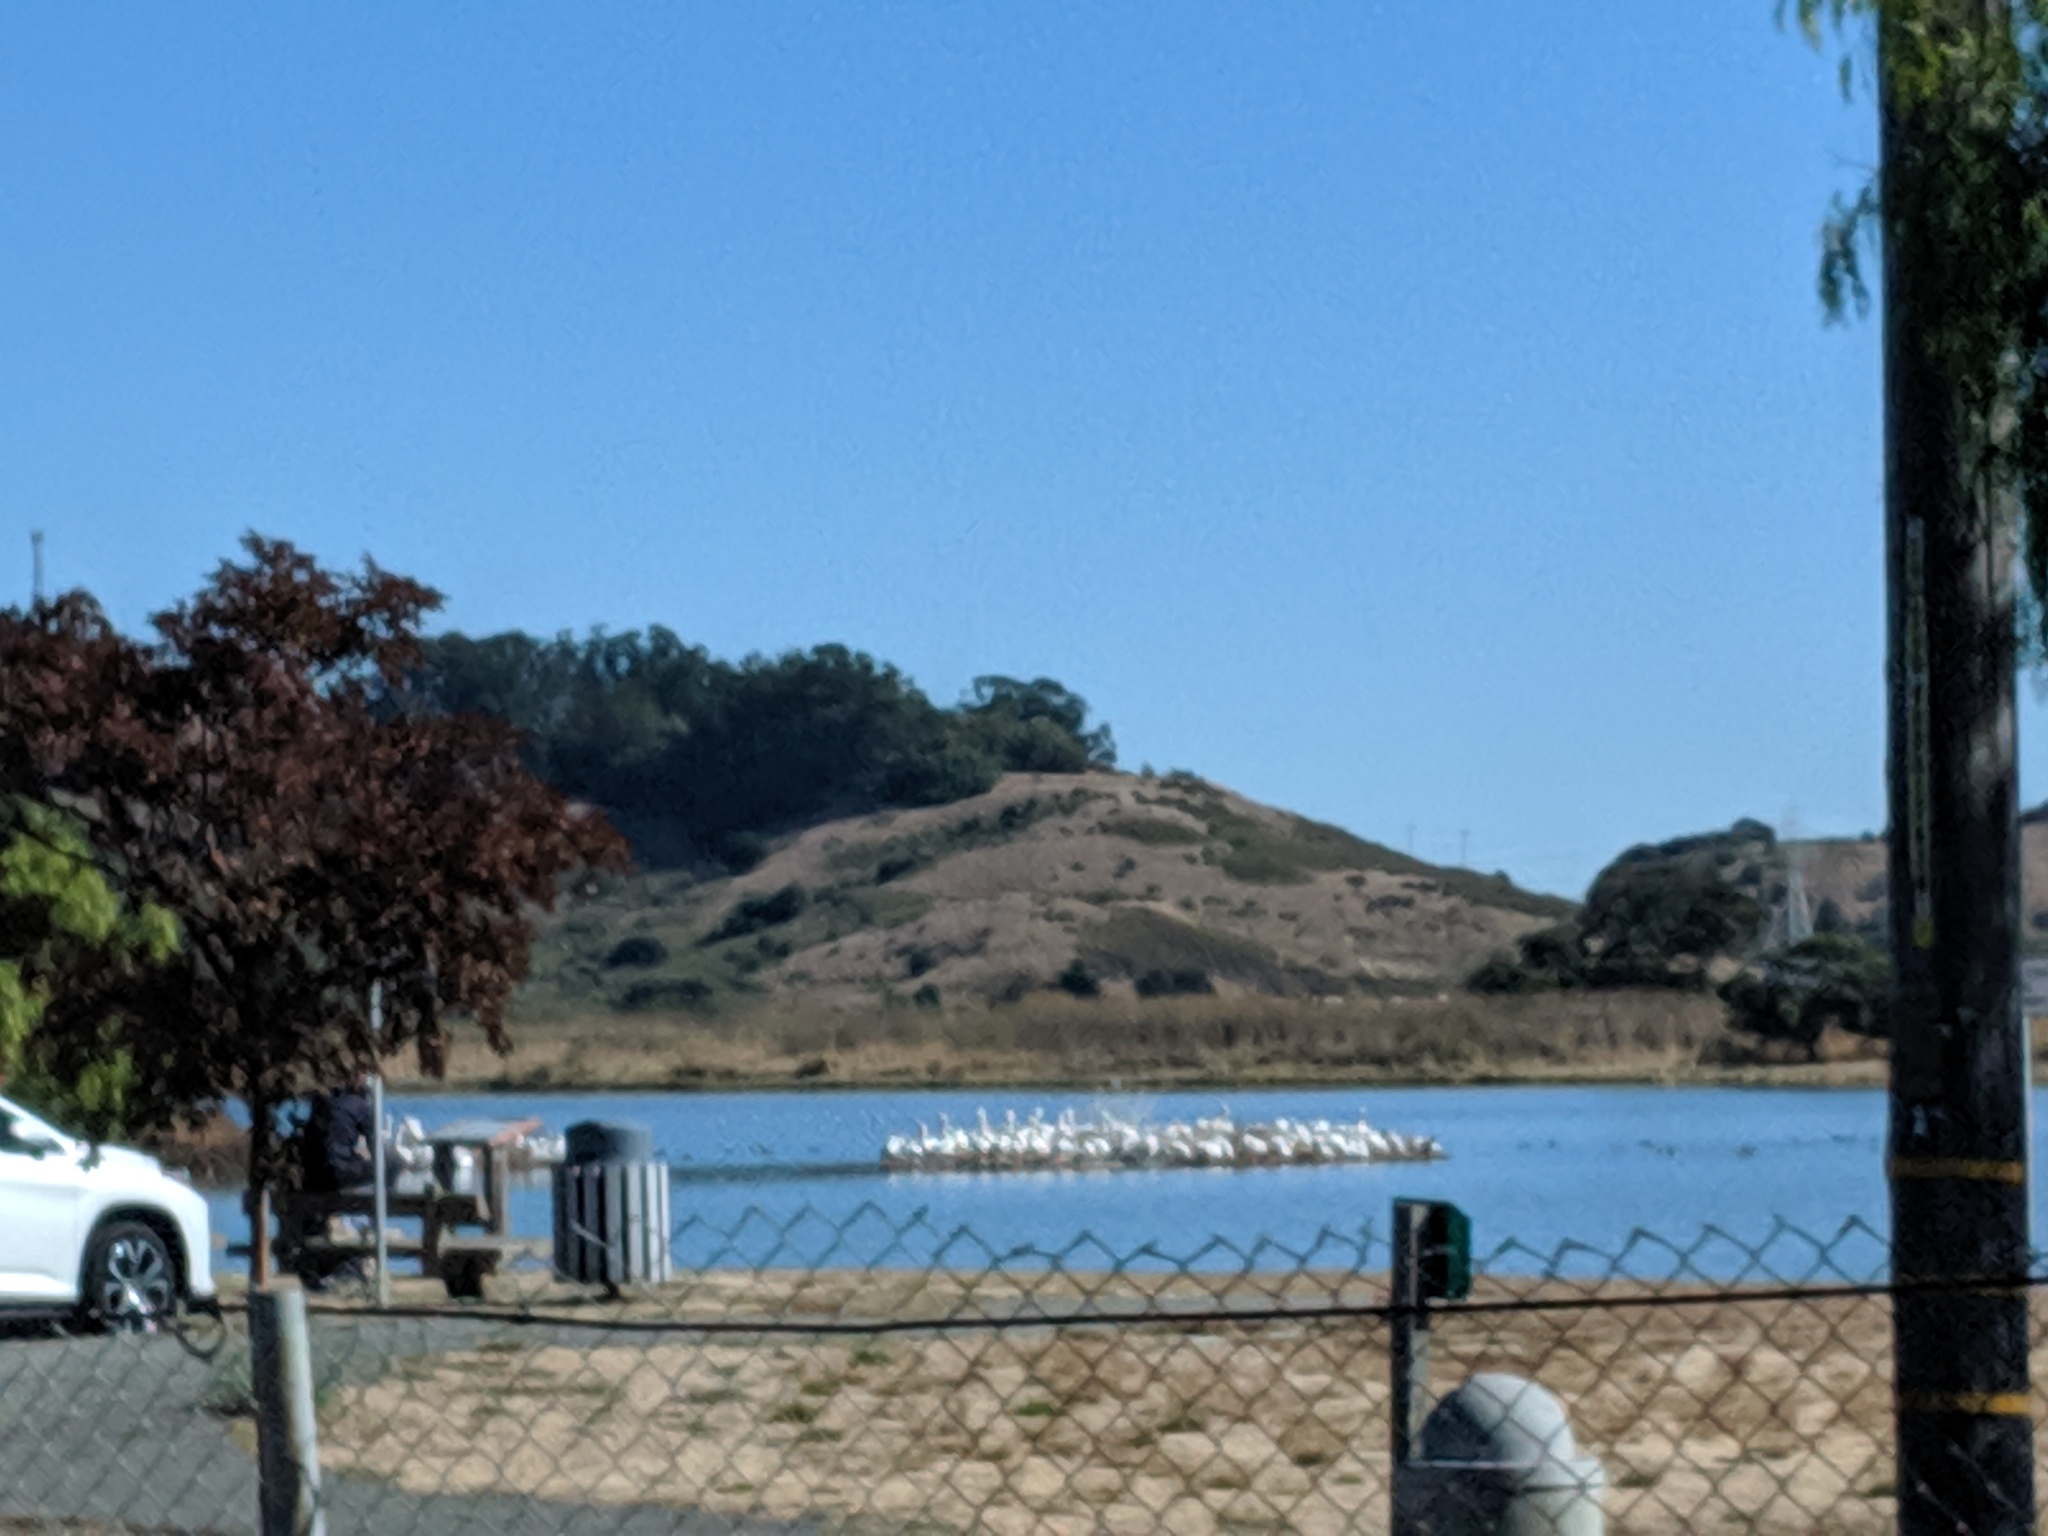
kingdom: Animalia
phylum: Chordata
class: Aves
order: Pelecaniformes
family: Pelecanidae
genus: Pelecanus
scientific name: Pelecanus erythrorhynchos
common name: American white pelican
